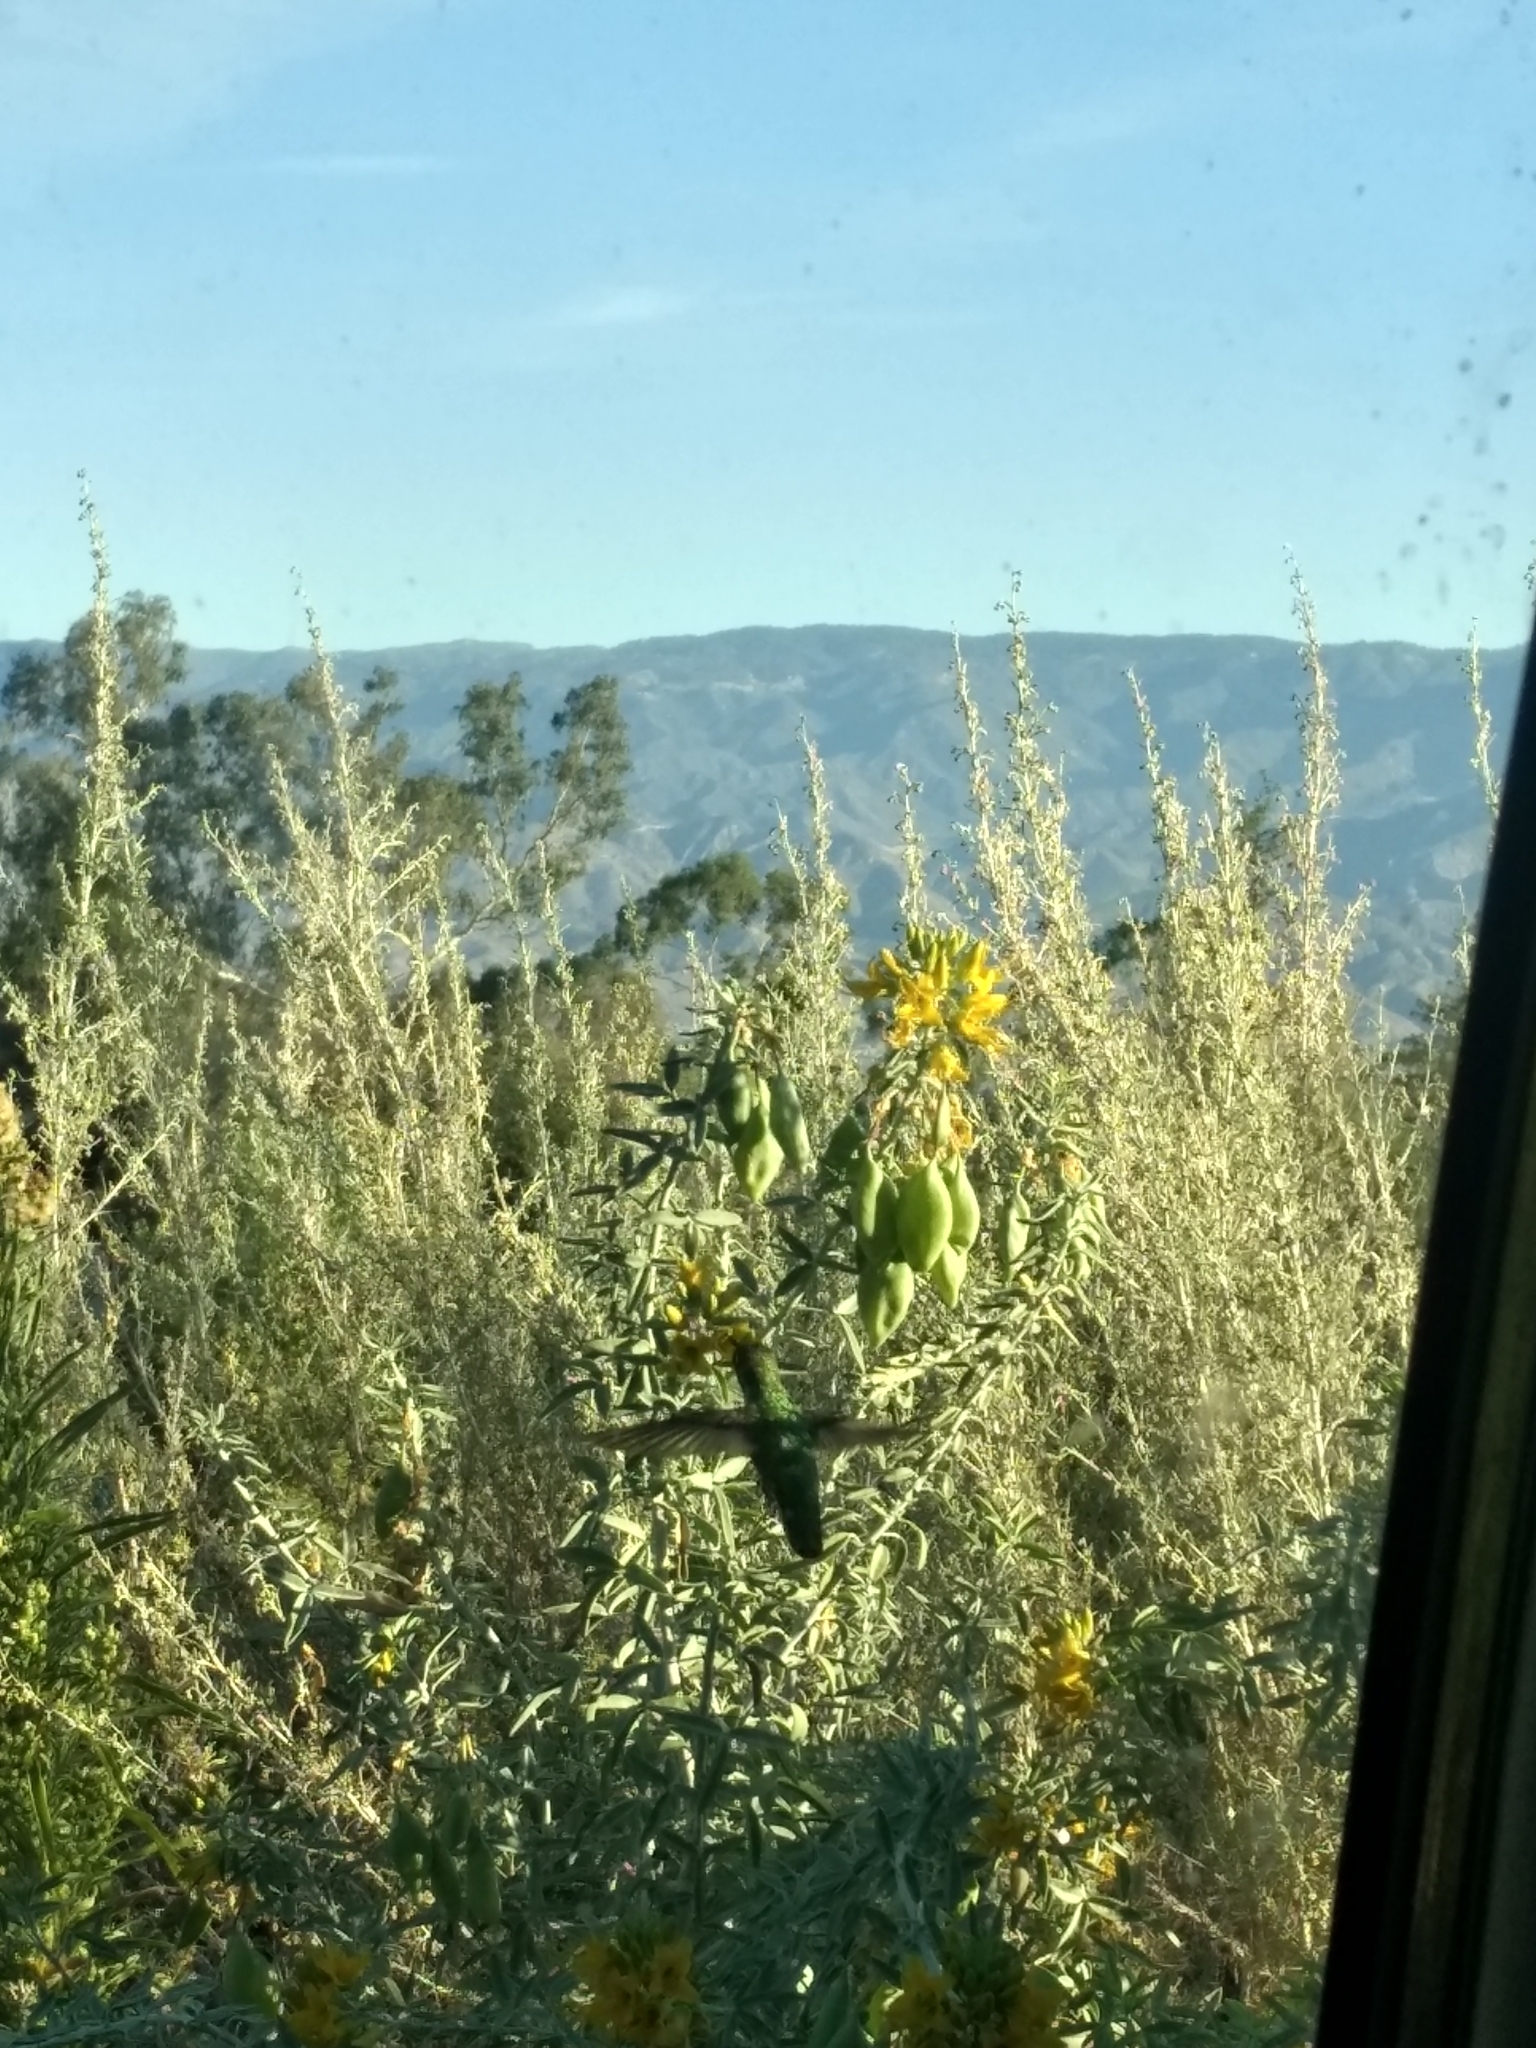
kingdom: Animalia
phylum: Chordata
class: Aves
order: Apodiformes
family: Trochilidae
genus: Calypte
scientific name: Calypte anna
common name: Anna's hummingbird
